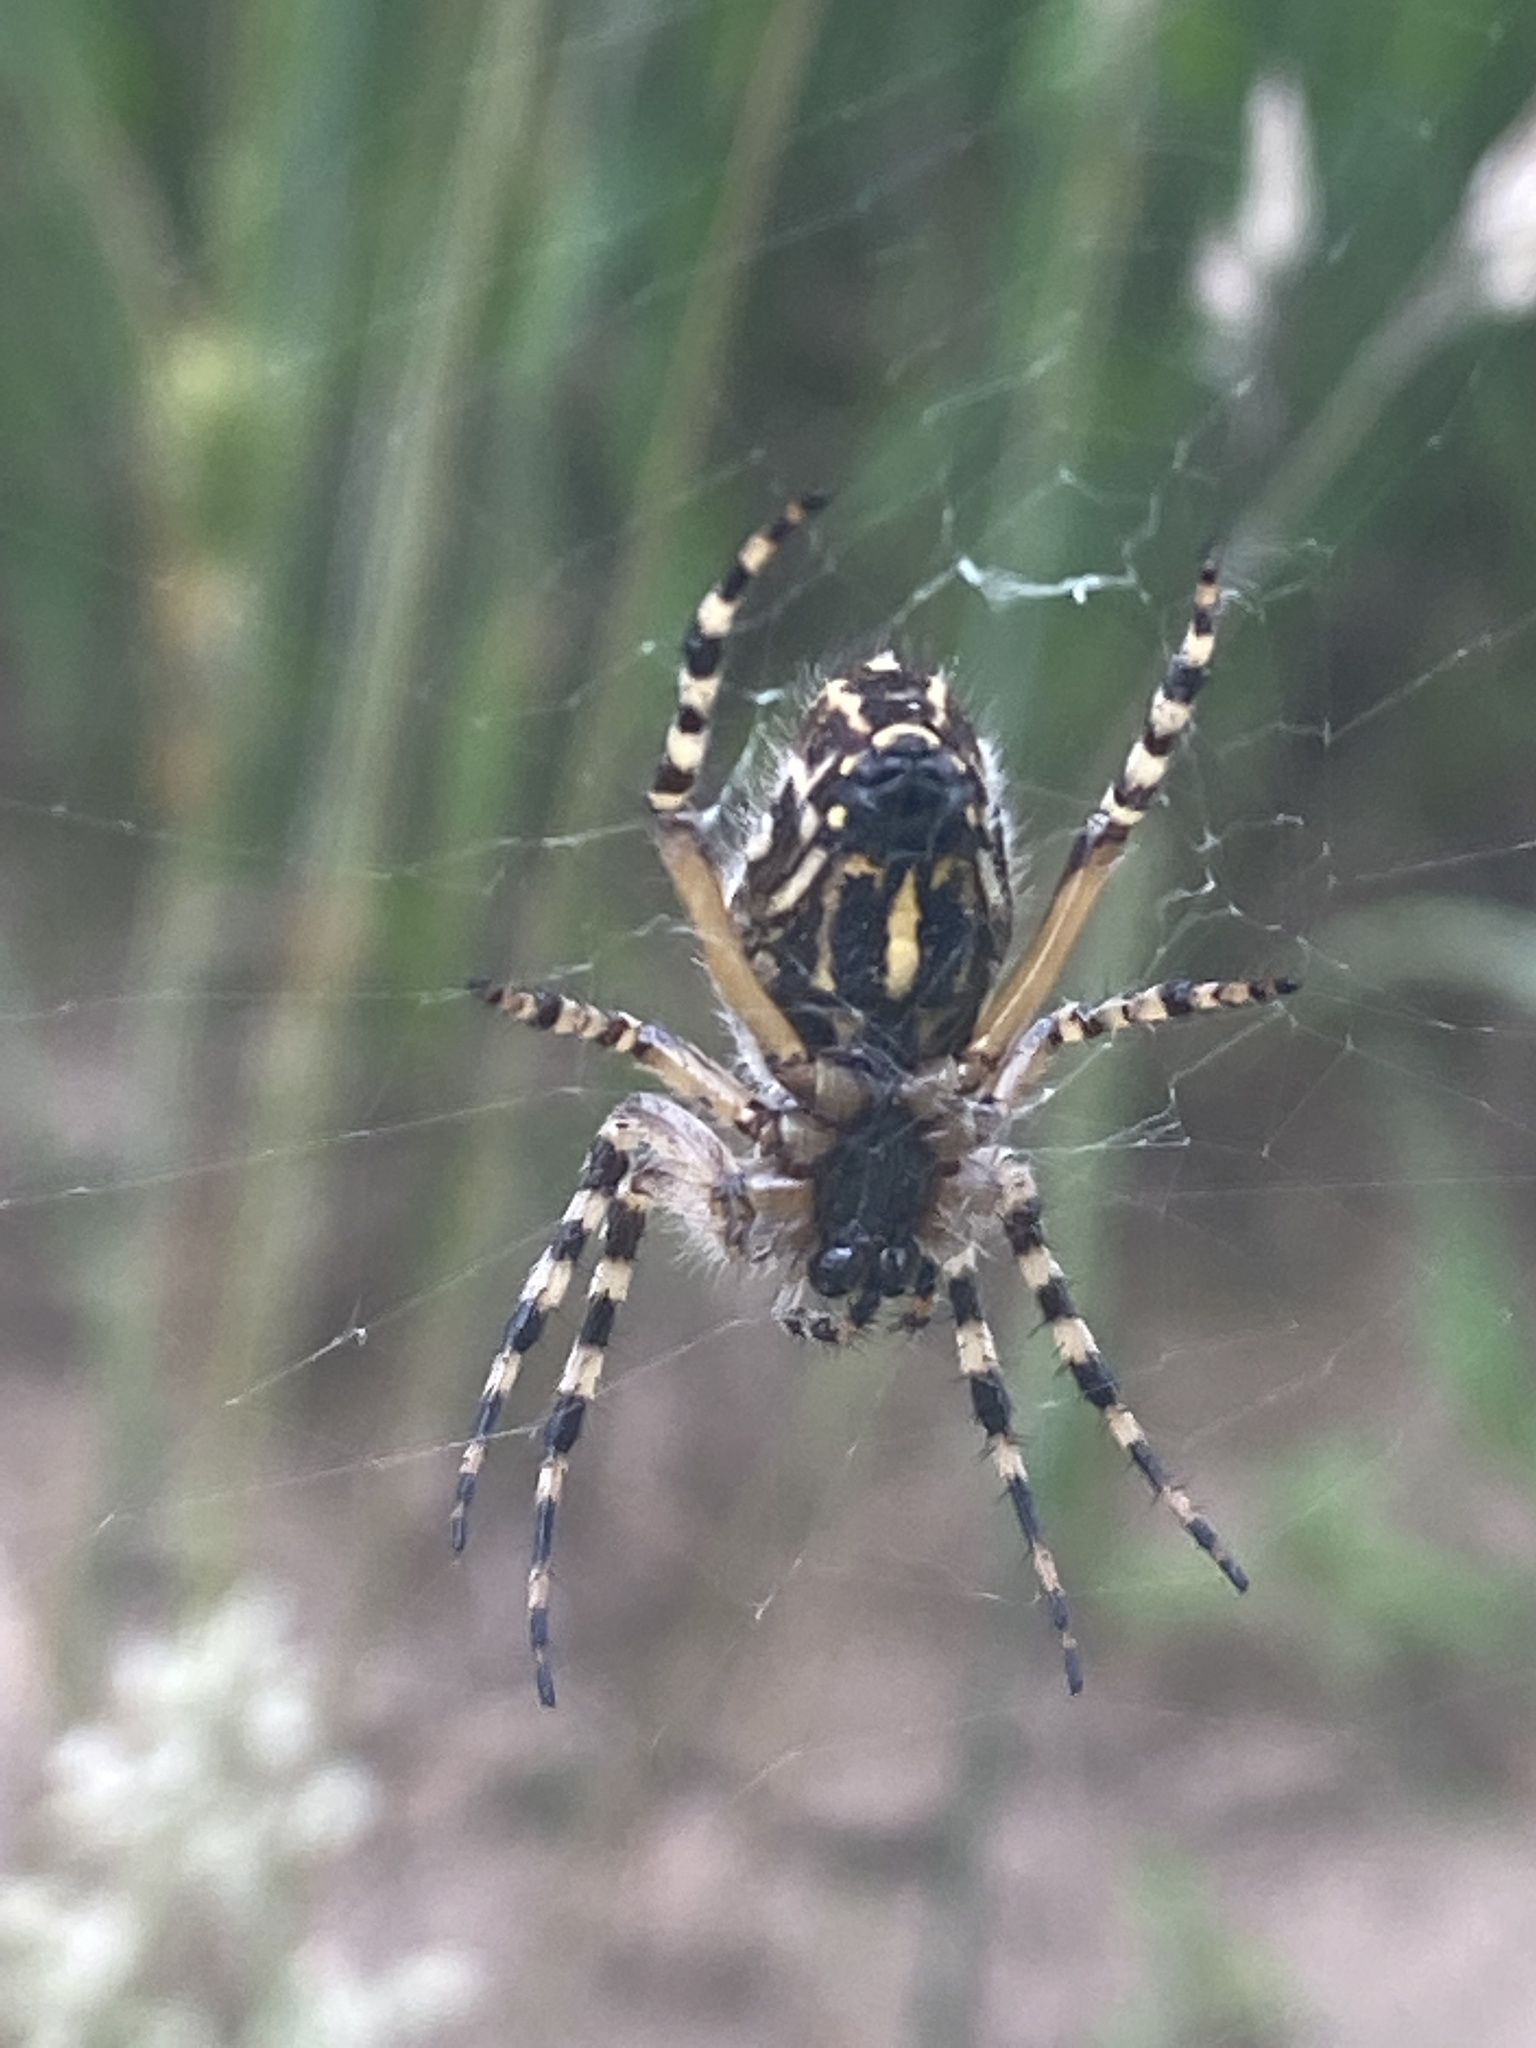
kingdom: Animalia
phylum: Arthropoda
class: Arachnida
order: Araneae
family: Araneidae
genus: Aculepeira
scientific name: Aculepeira ceropegia
